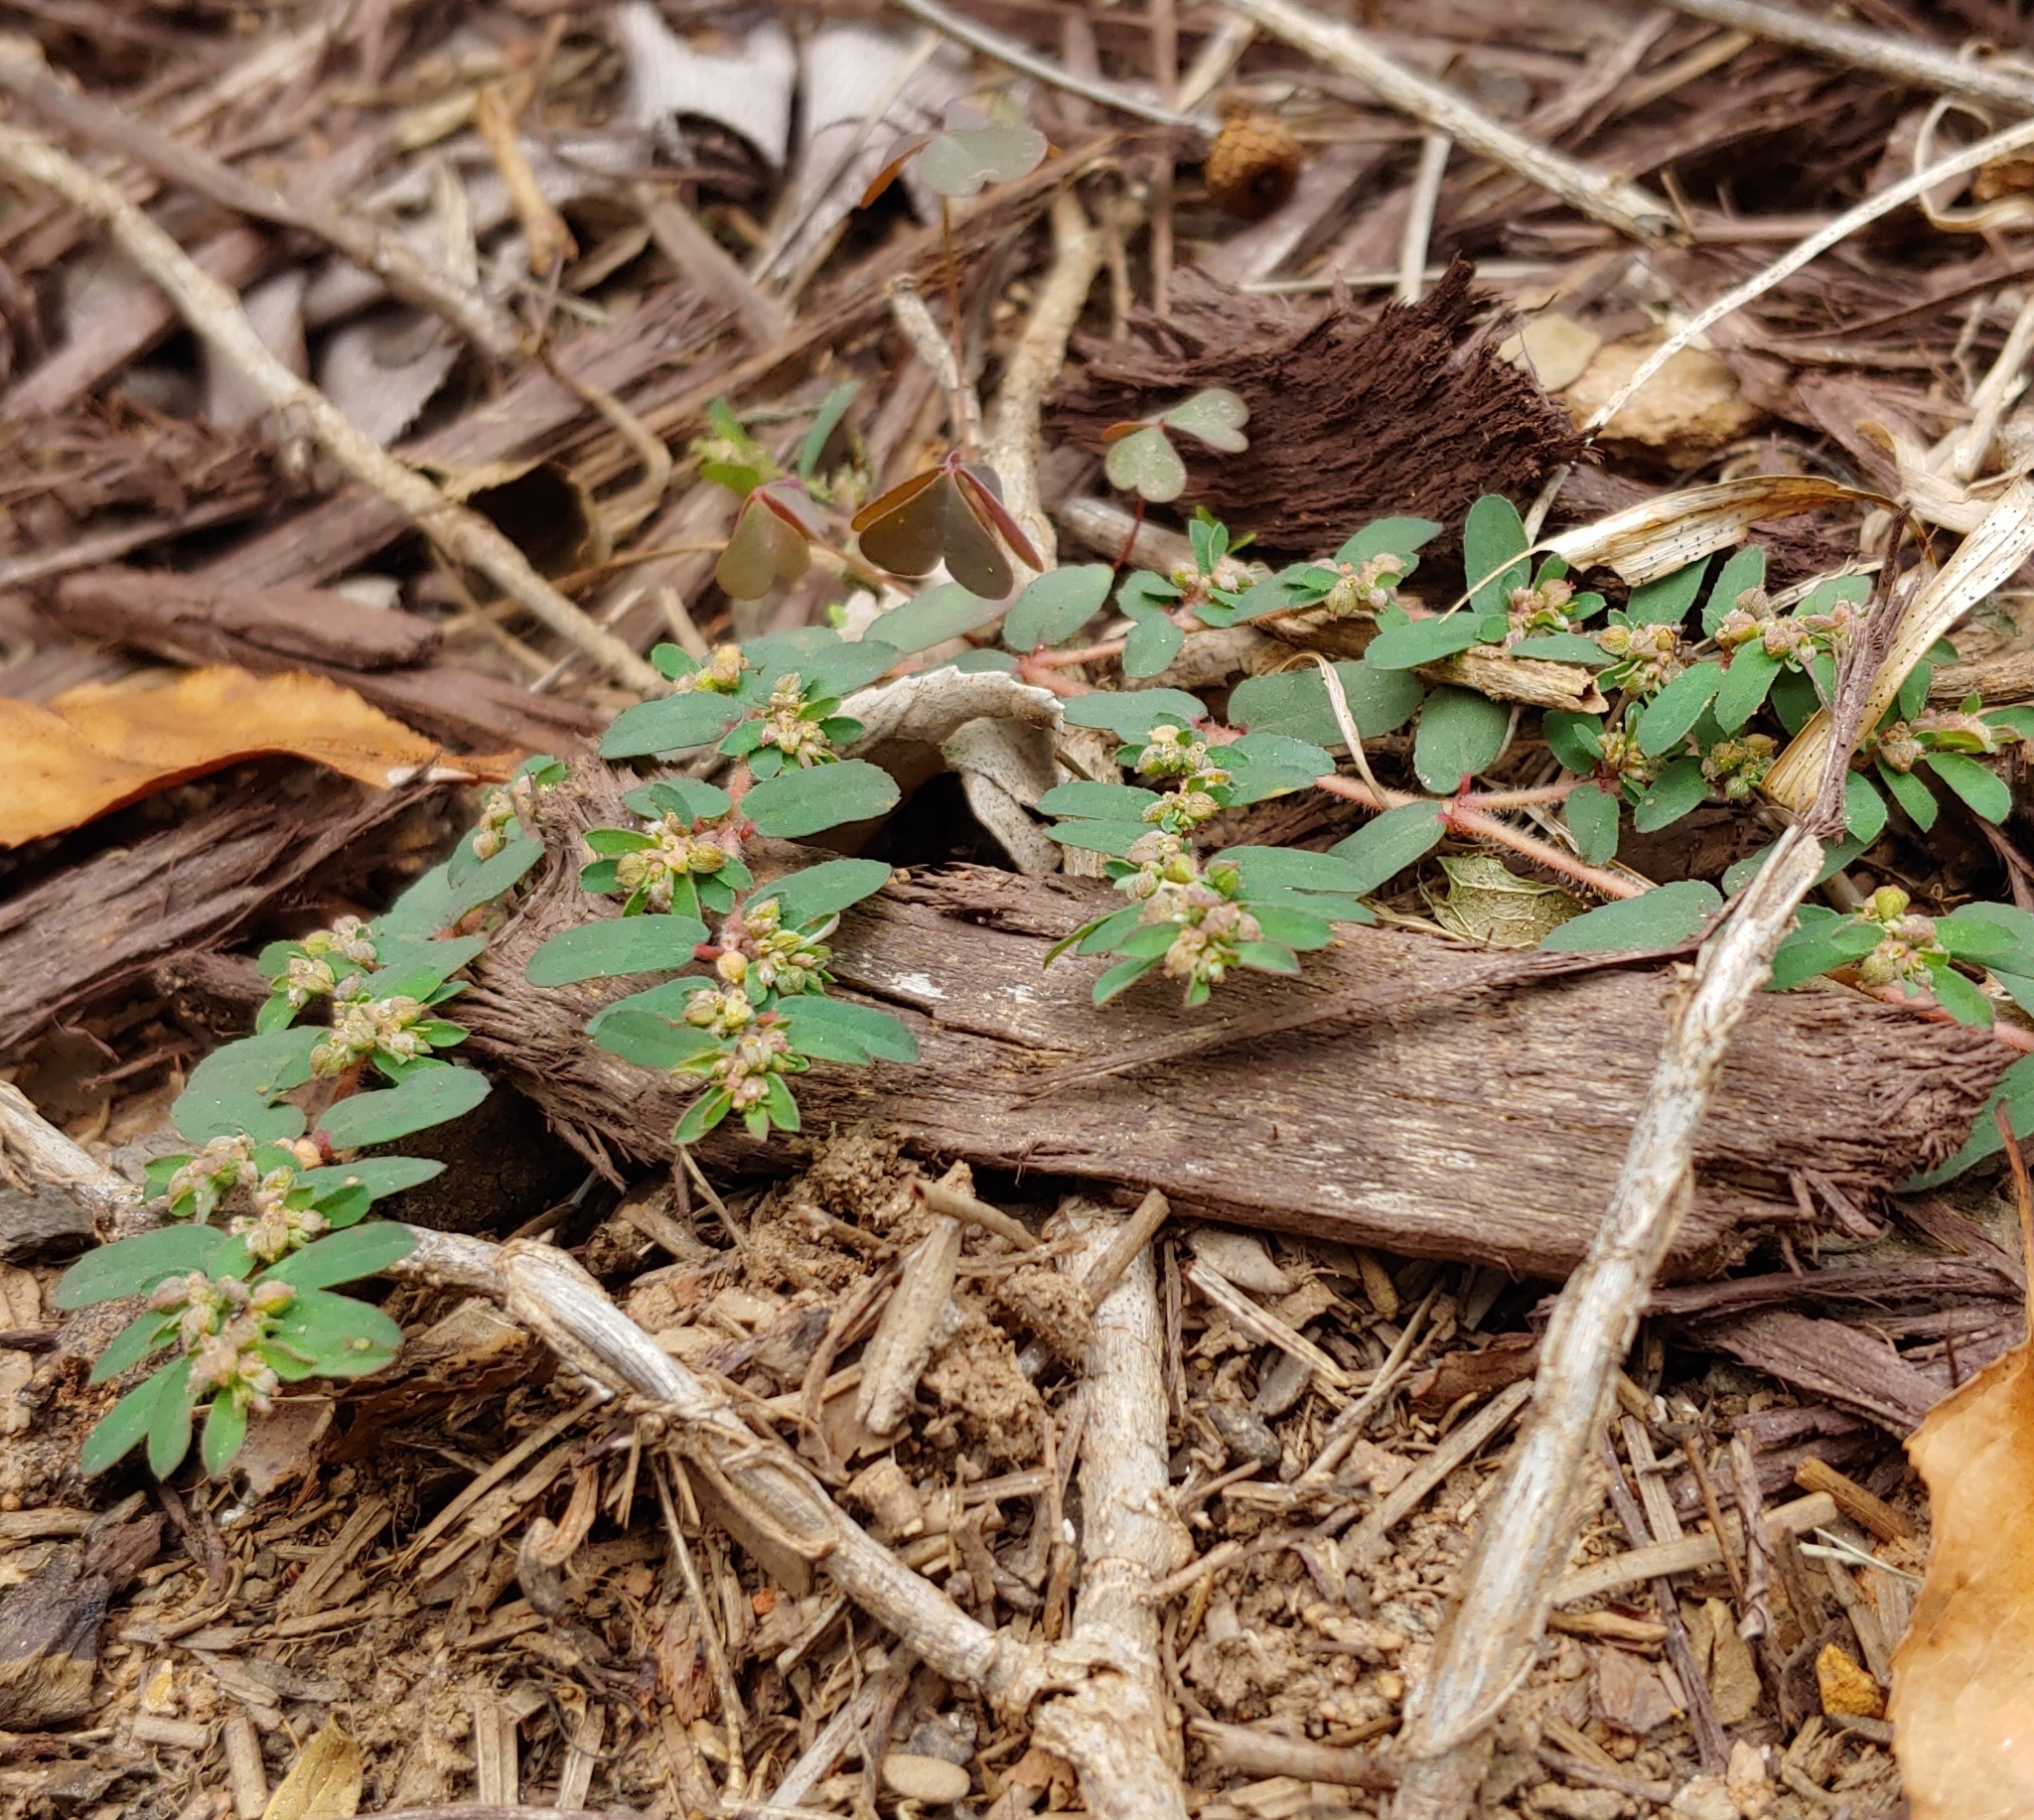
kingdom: Plantae
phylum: Tracheophyta
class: Magnoliopsida
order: Malpighiales
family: Euphorbiaceae
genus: Euphorbia
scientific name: Euphorbia maculata
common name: Spotted spurge
